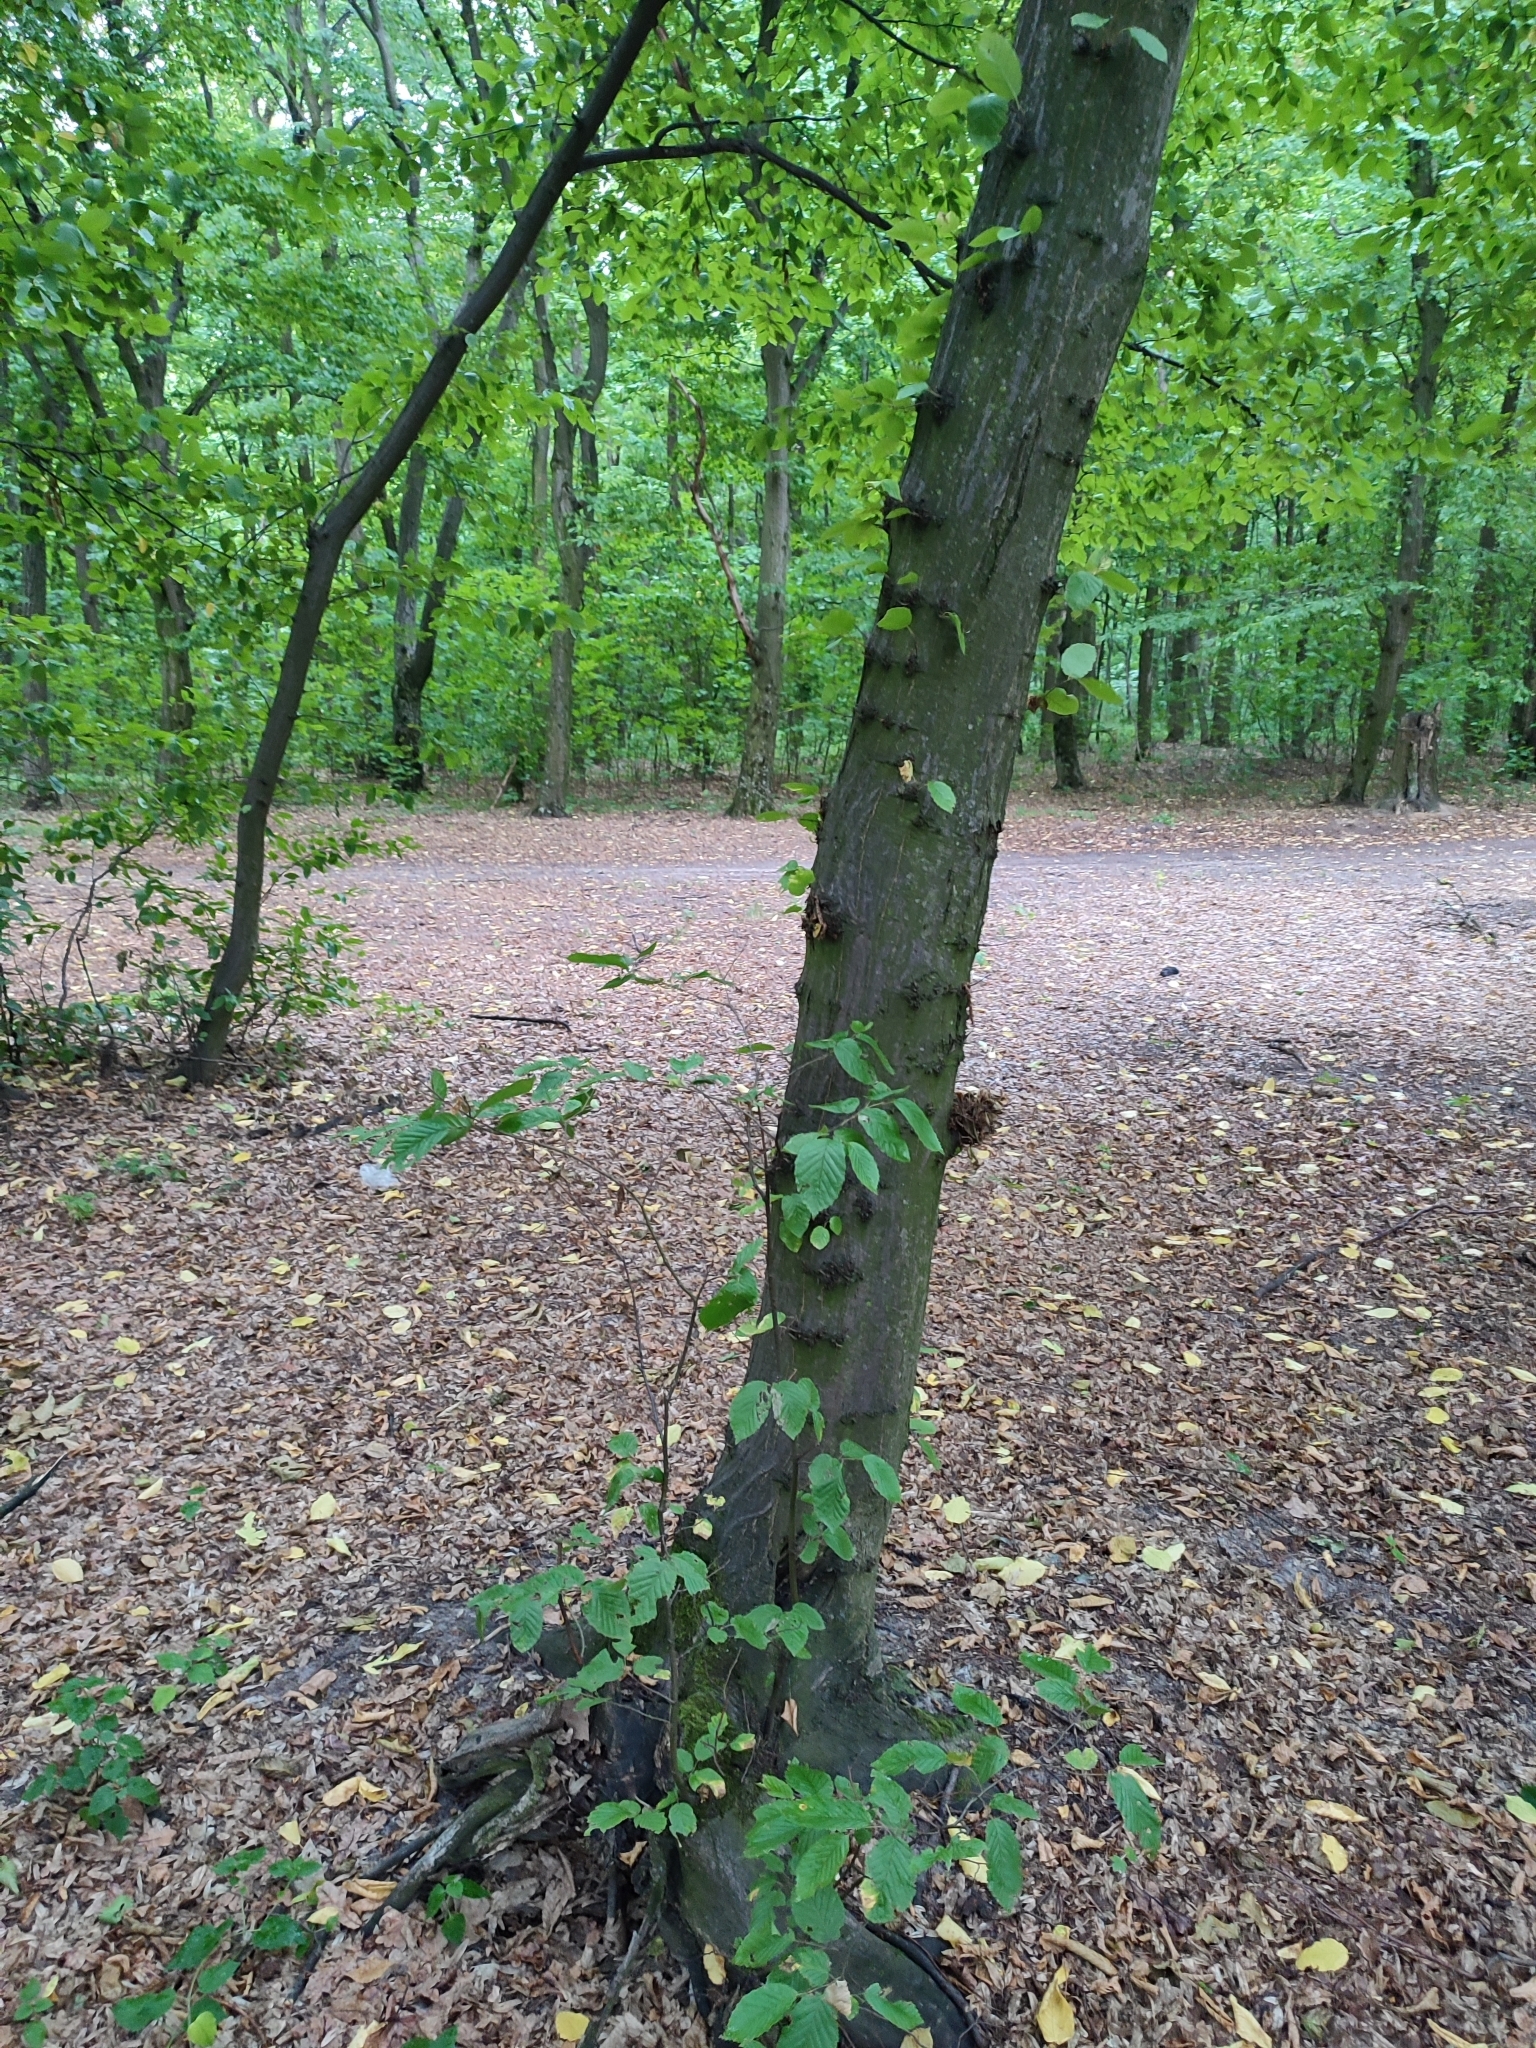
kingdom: Plantae
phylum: Tracheophyta
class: Magnoliopsida
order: Fagales
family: Betulaceae
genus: Carpinus
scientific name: Carpinus betulus
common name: Hornbeam
